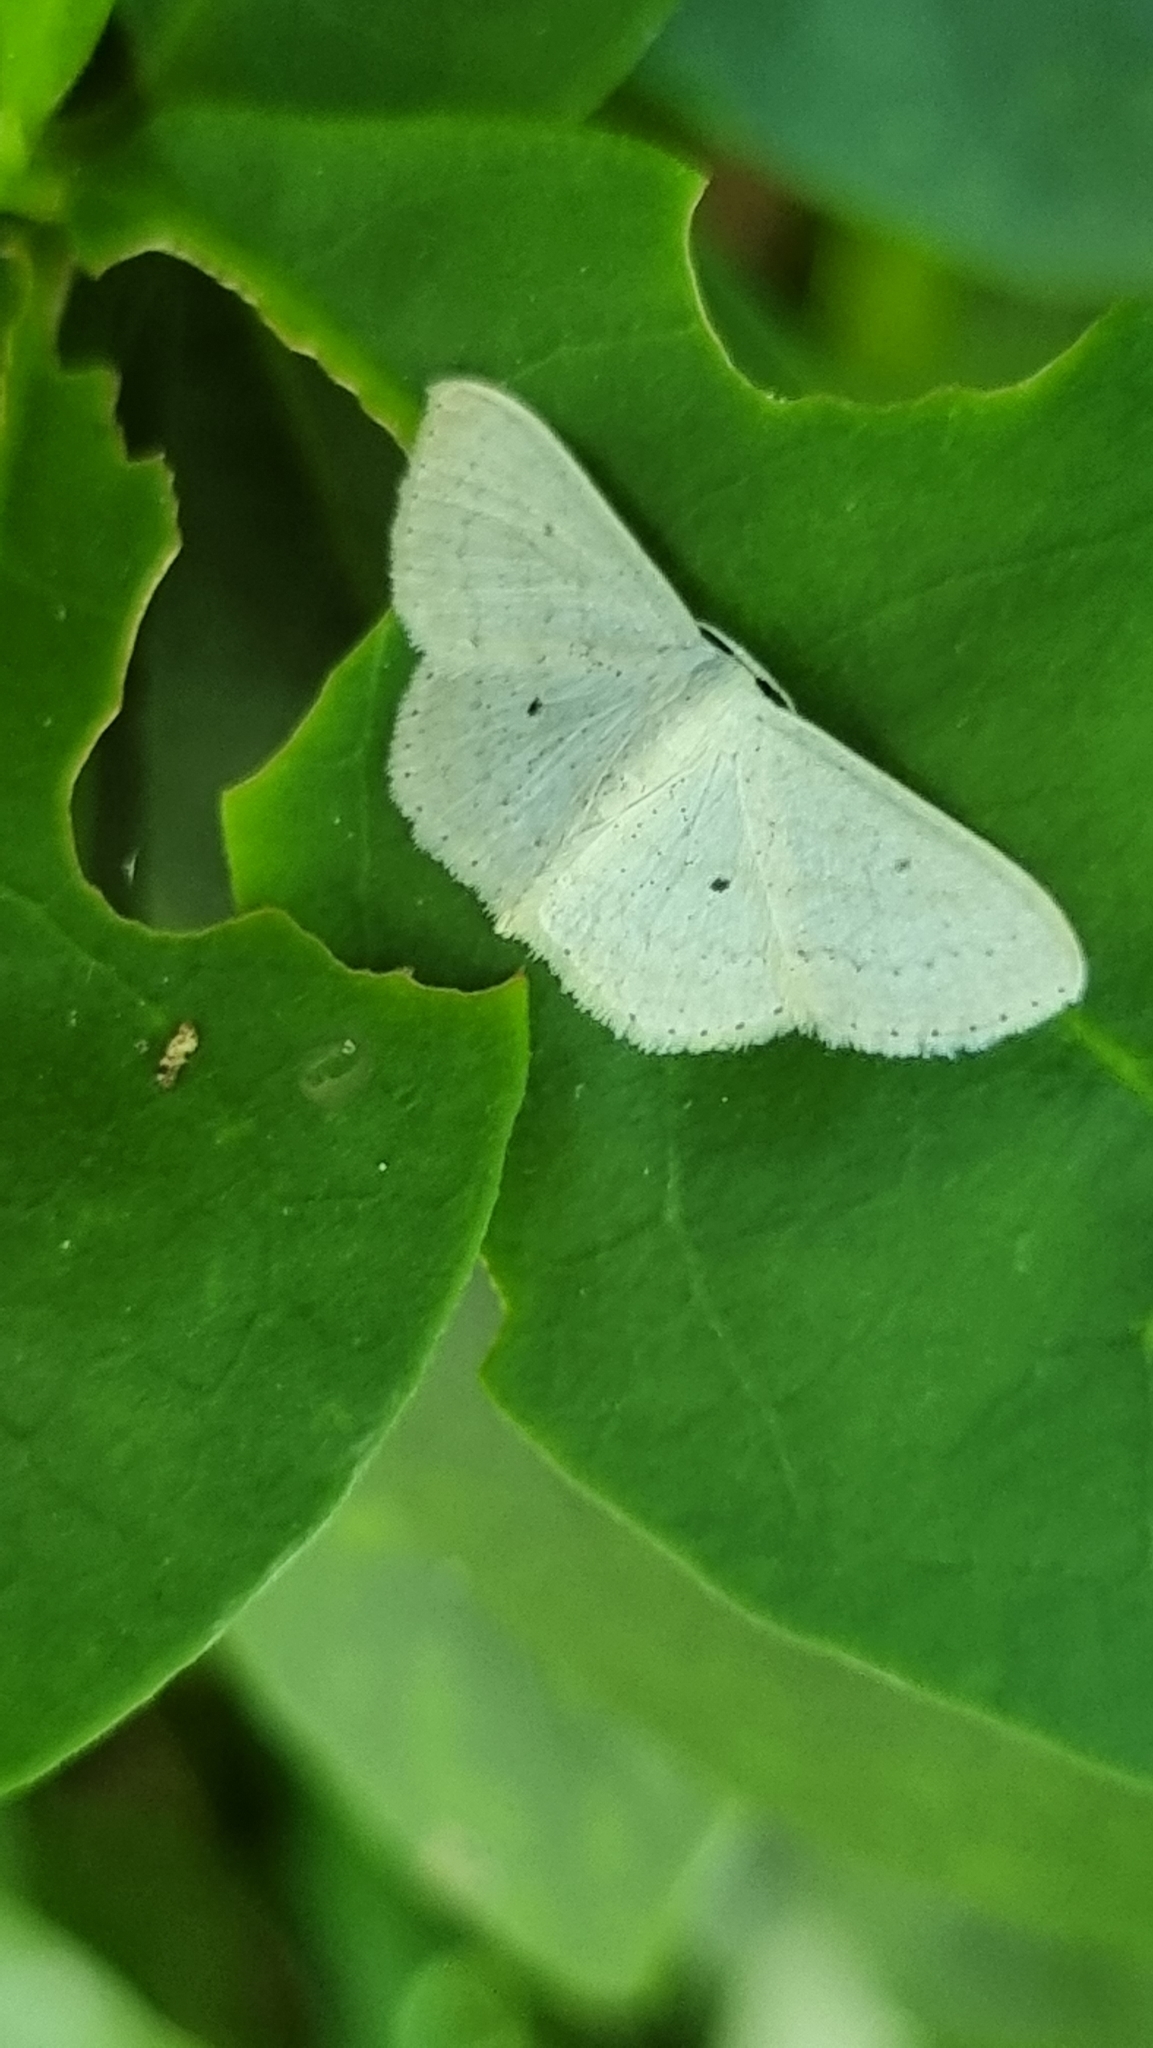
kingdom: Animalia
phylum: Arthropoda
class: Insecta
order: Lepidoptera
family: Geometridae
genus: Scopula
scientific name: Scopula aleuritis
